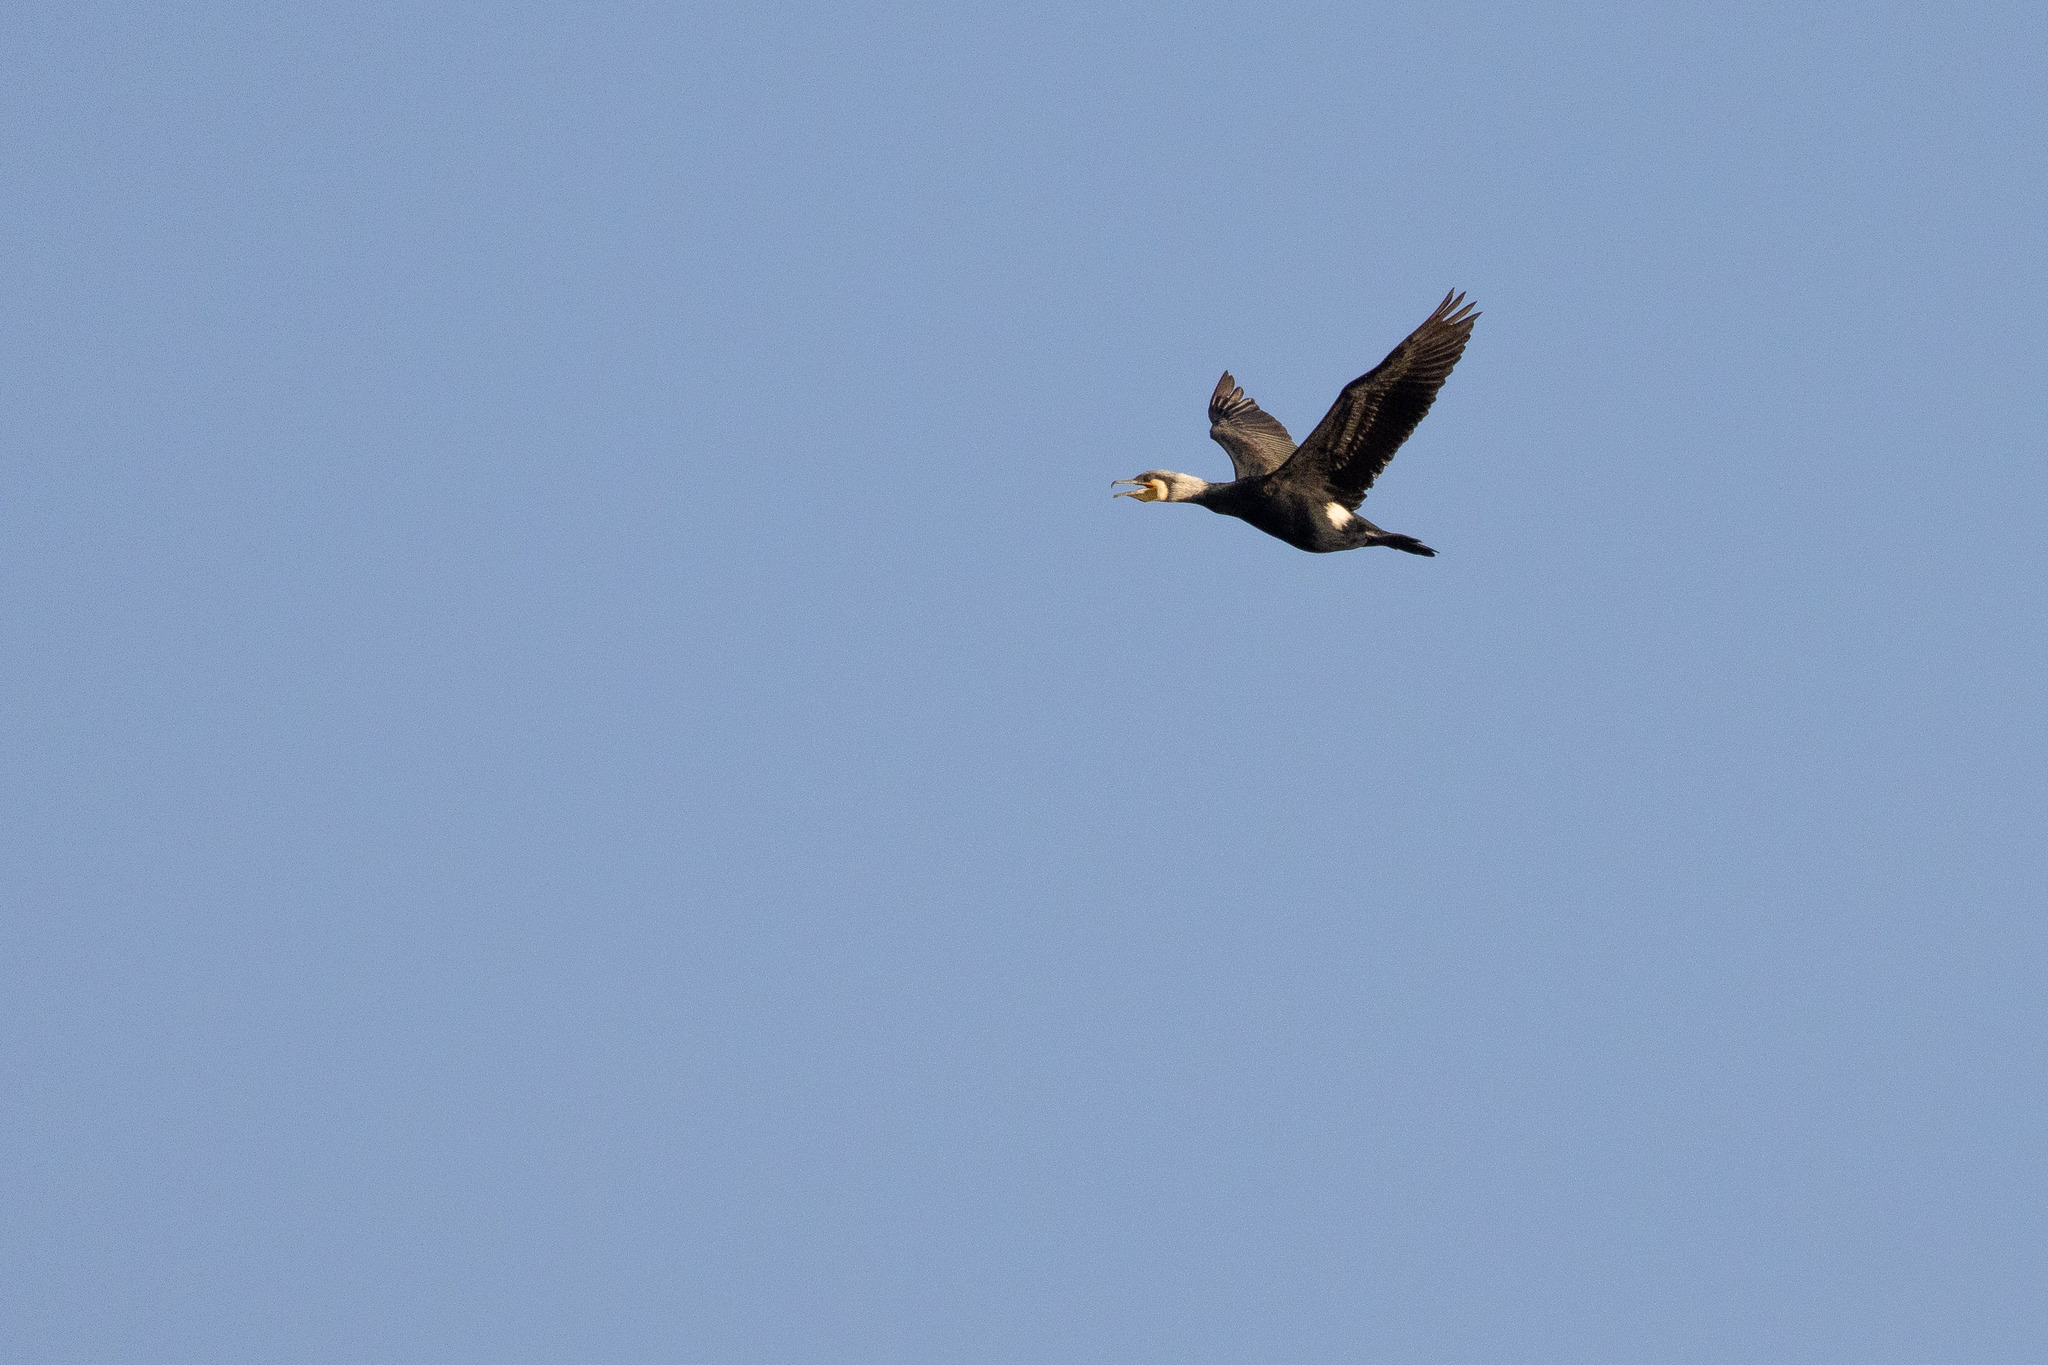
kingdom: Animalia
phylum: Chordata
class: Aves
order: Suliformes
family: Phalacrocoracidae
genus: Phalacrocorax
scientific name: Phalacrocorax carbo
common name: Great cormorant
